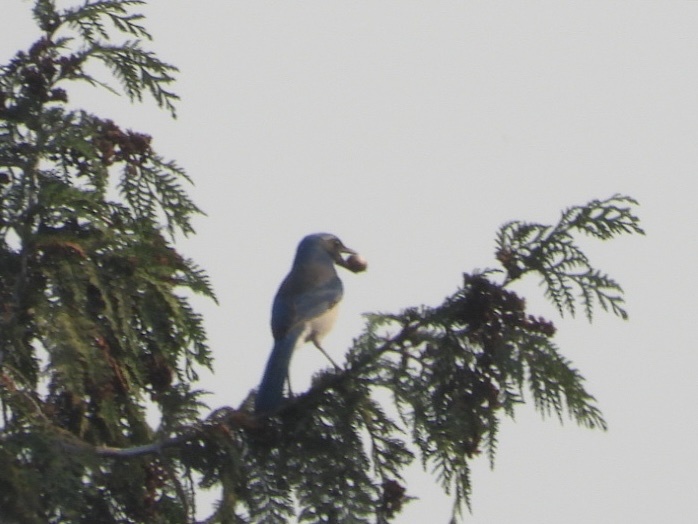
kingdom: Animalia
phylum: Chordata
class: Aves
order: Passeriformes
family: Corvidae
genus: Aphelocoma
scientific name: Aphelocoma californica
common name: California scrub-jay
